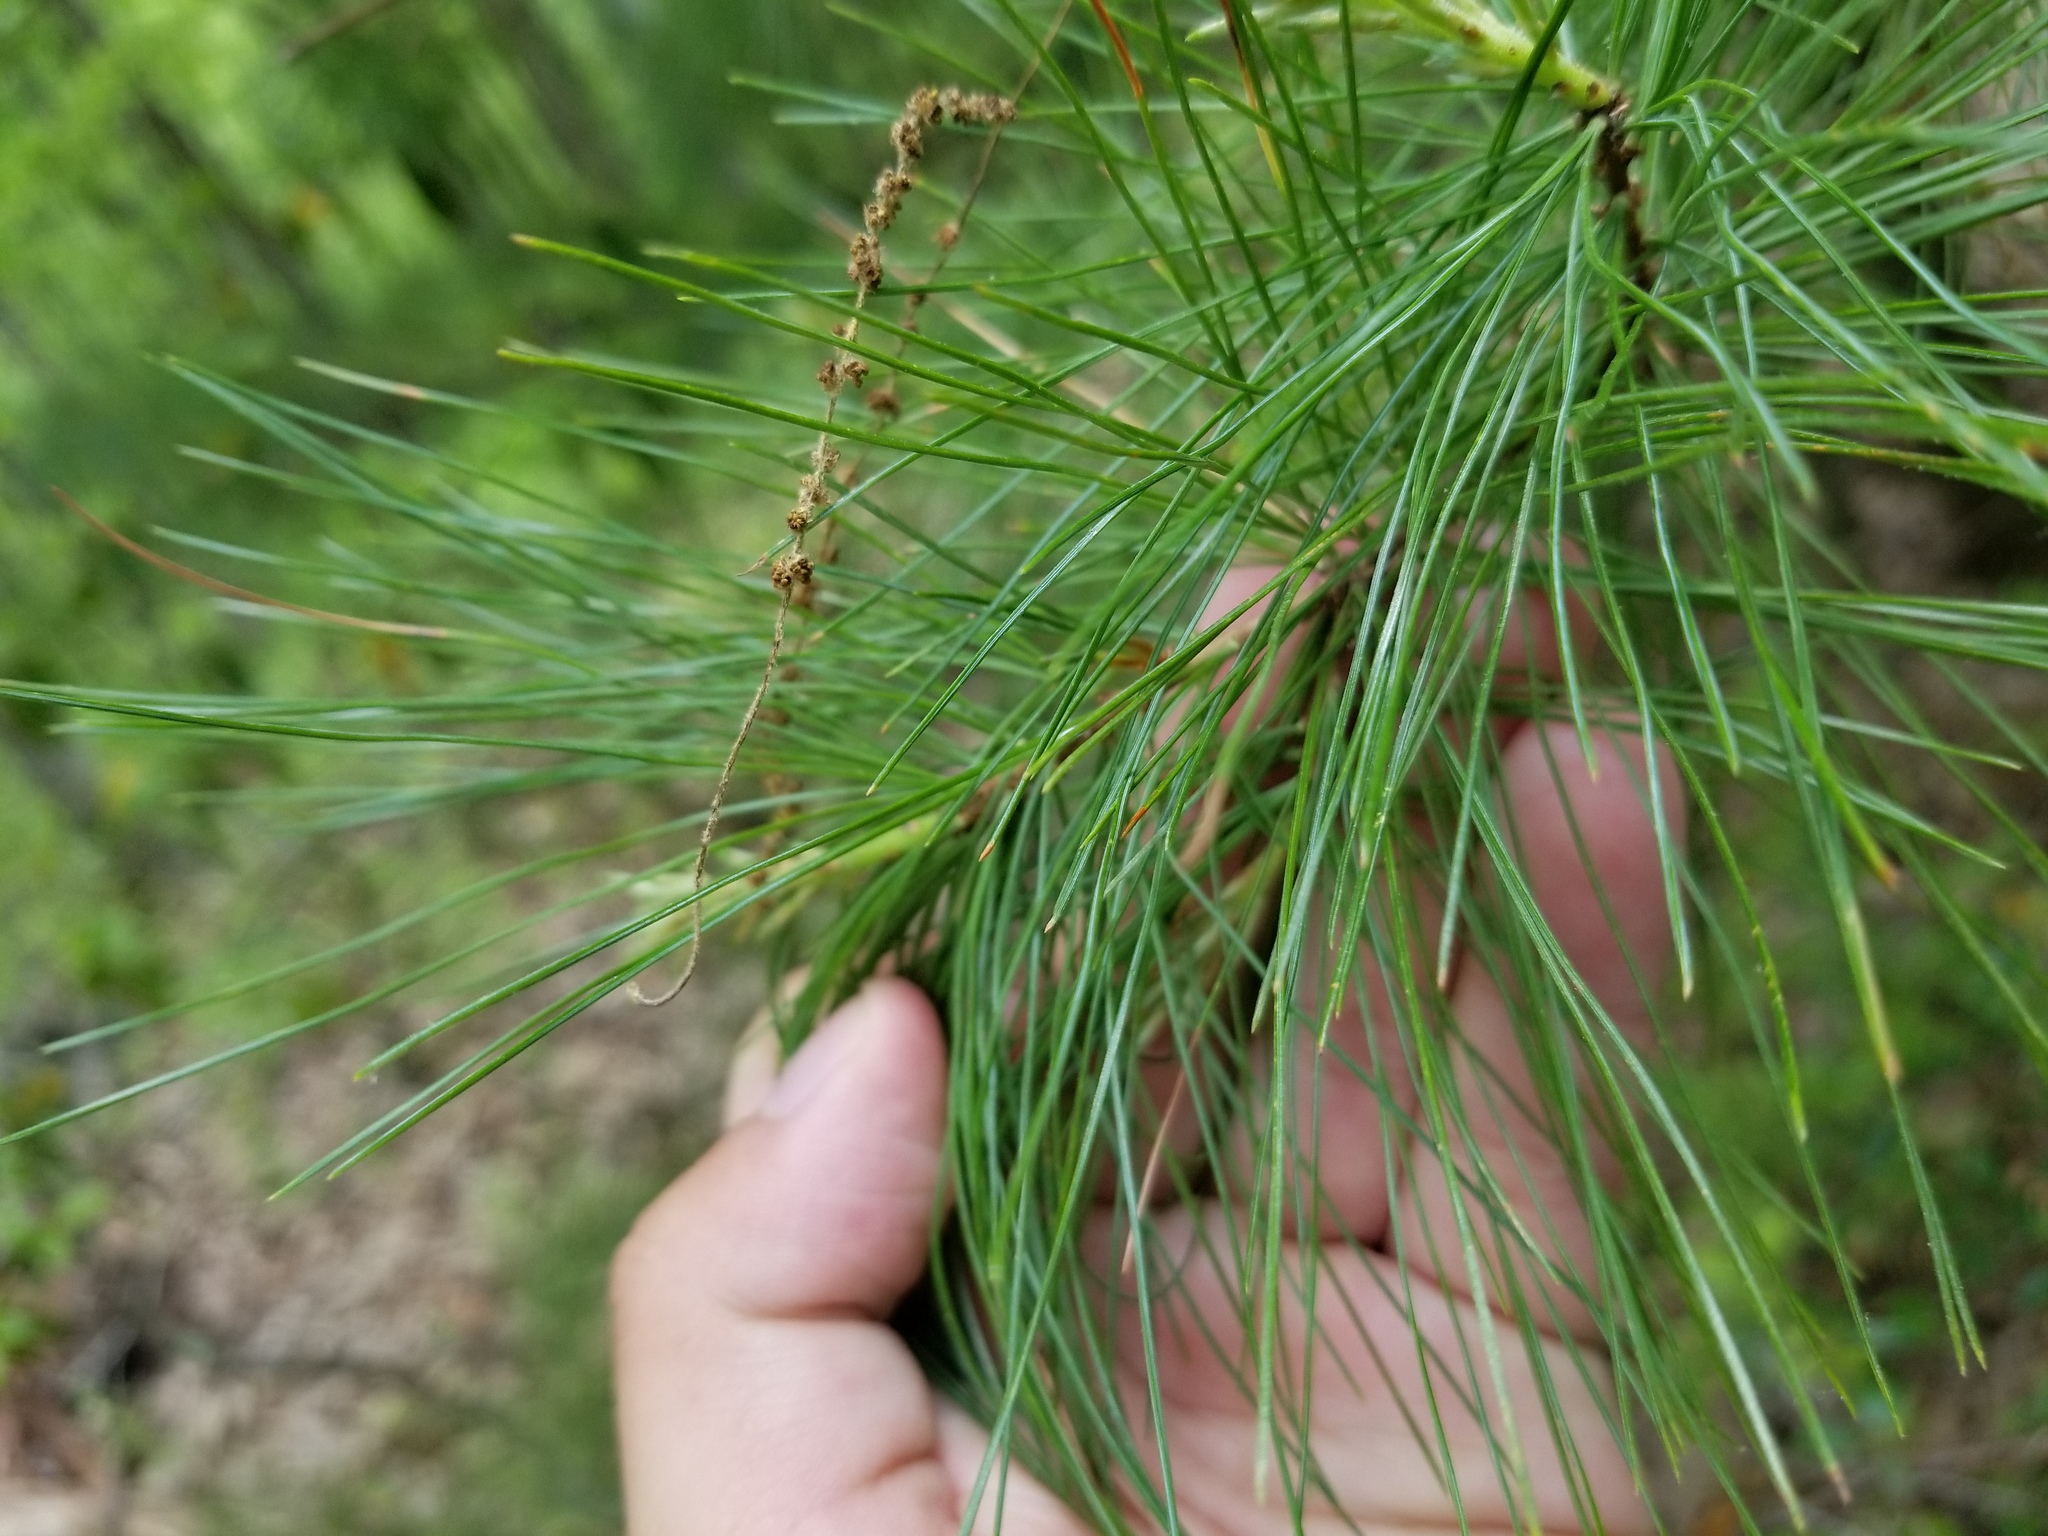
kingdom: Plantae
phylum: Tracheophyta
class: Pinopsida
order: Pinales
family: Pinaceae
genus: Pinus
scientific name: Pinus strobus
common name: Weymouth pine
